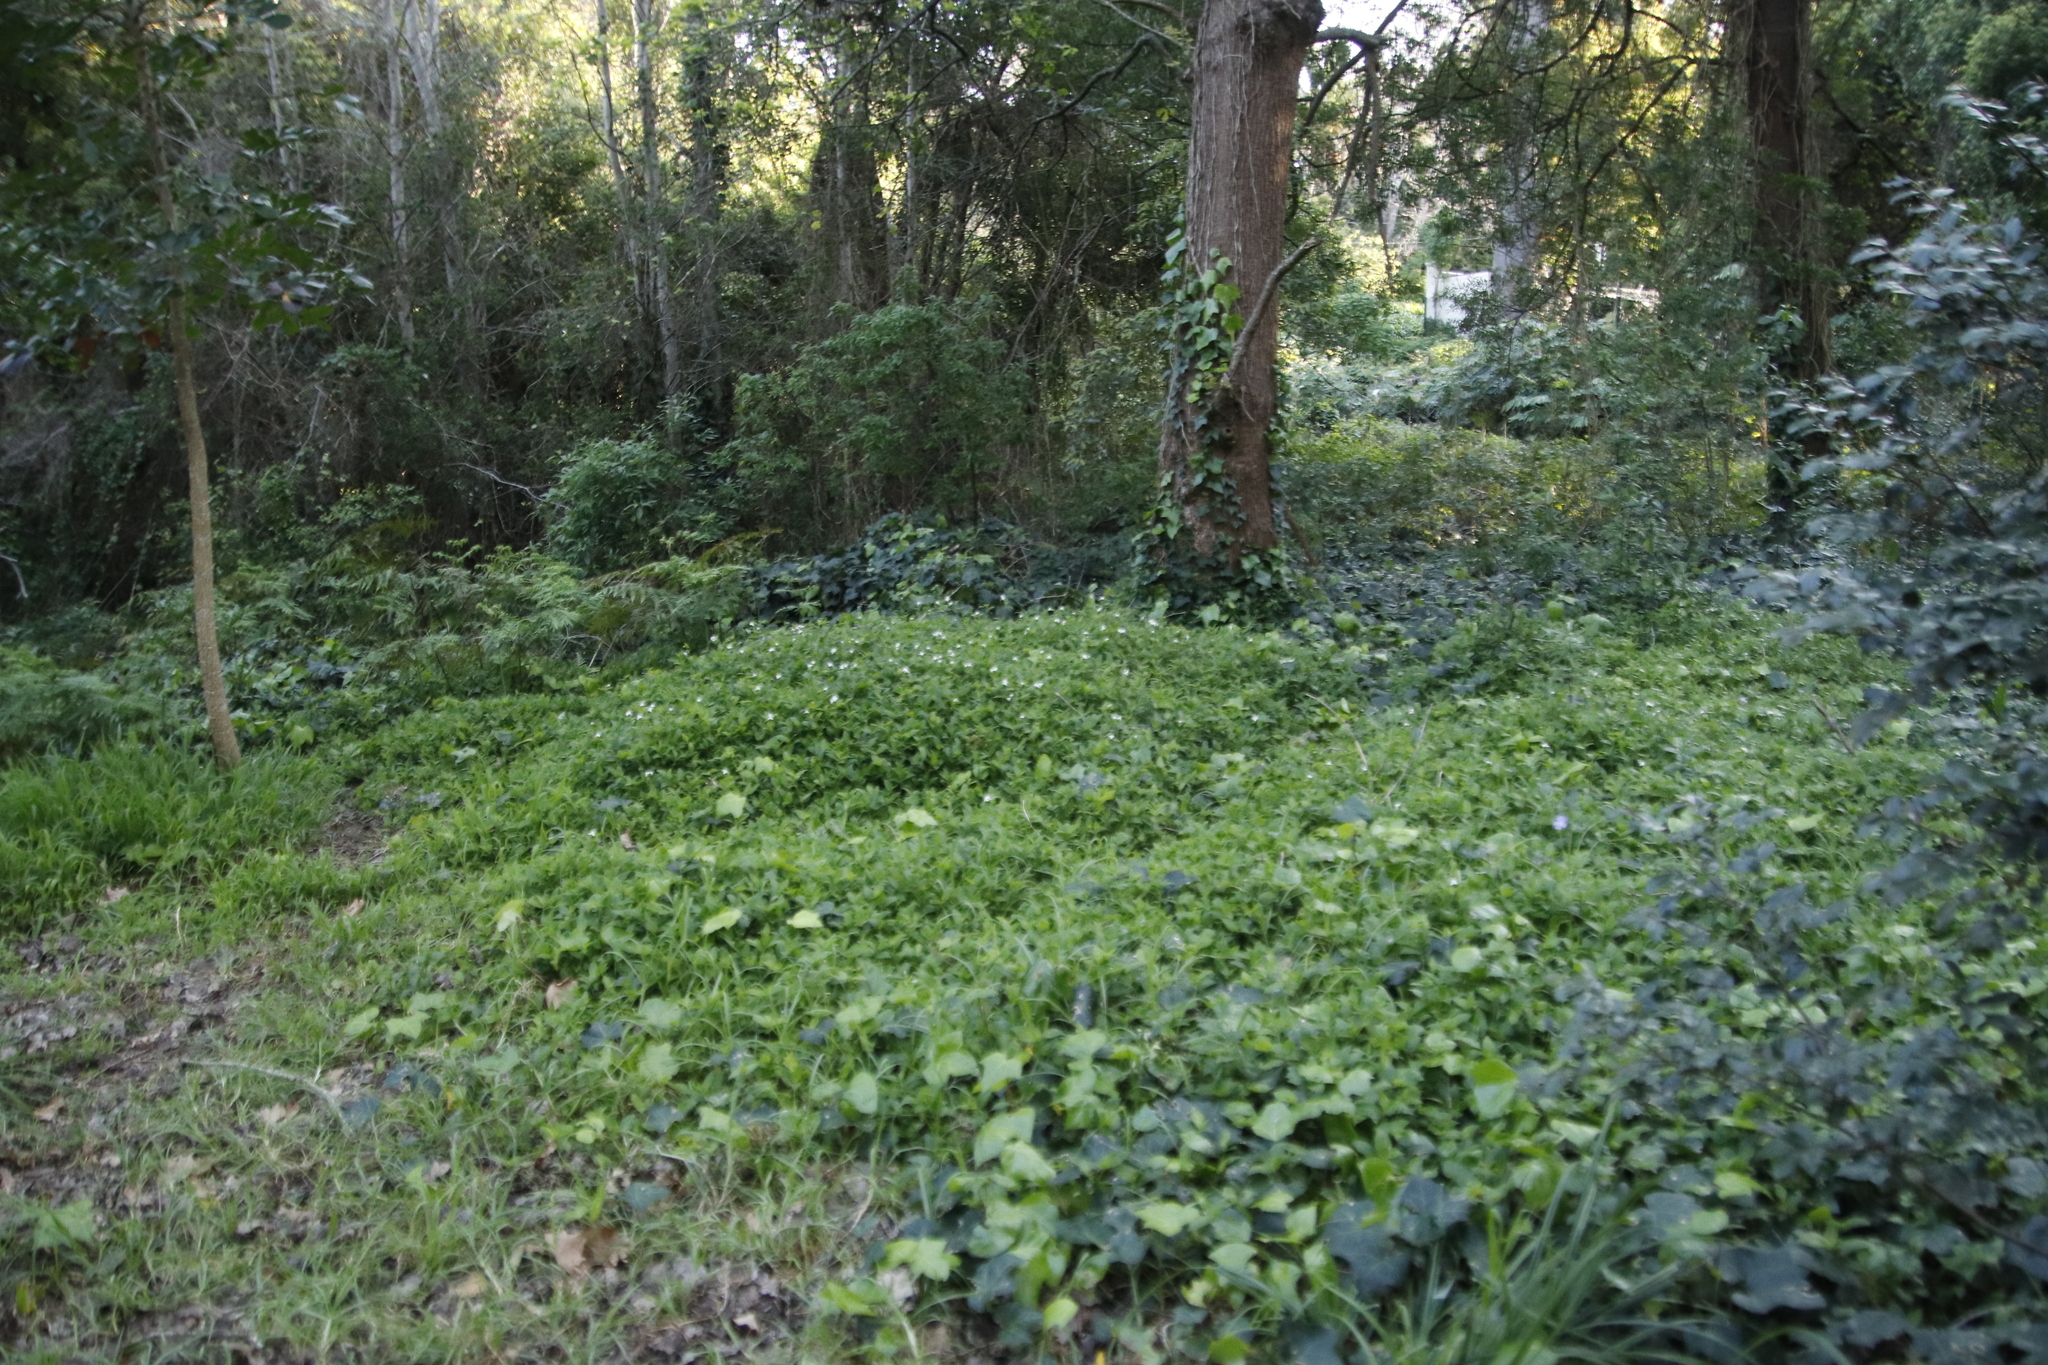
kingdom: Plantae
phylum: Tracheophyta
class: Liliopsida
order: Commelinales
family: Commelinaceae
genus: Tradescantia
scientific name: Tradescantia fluminensis
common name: Wandering-jew
